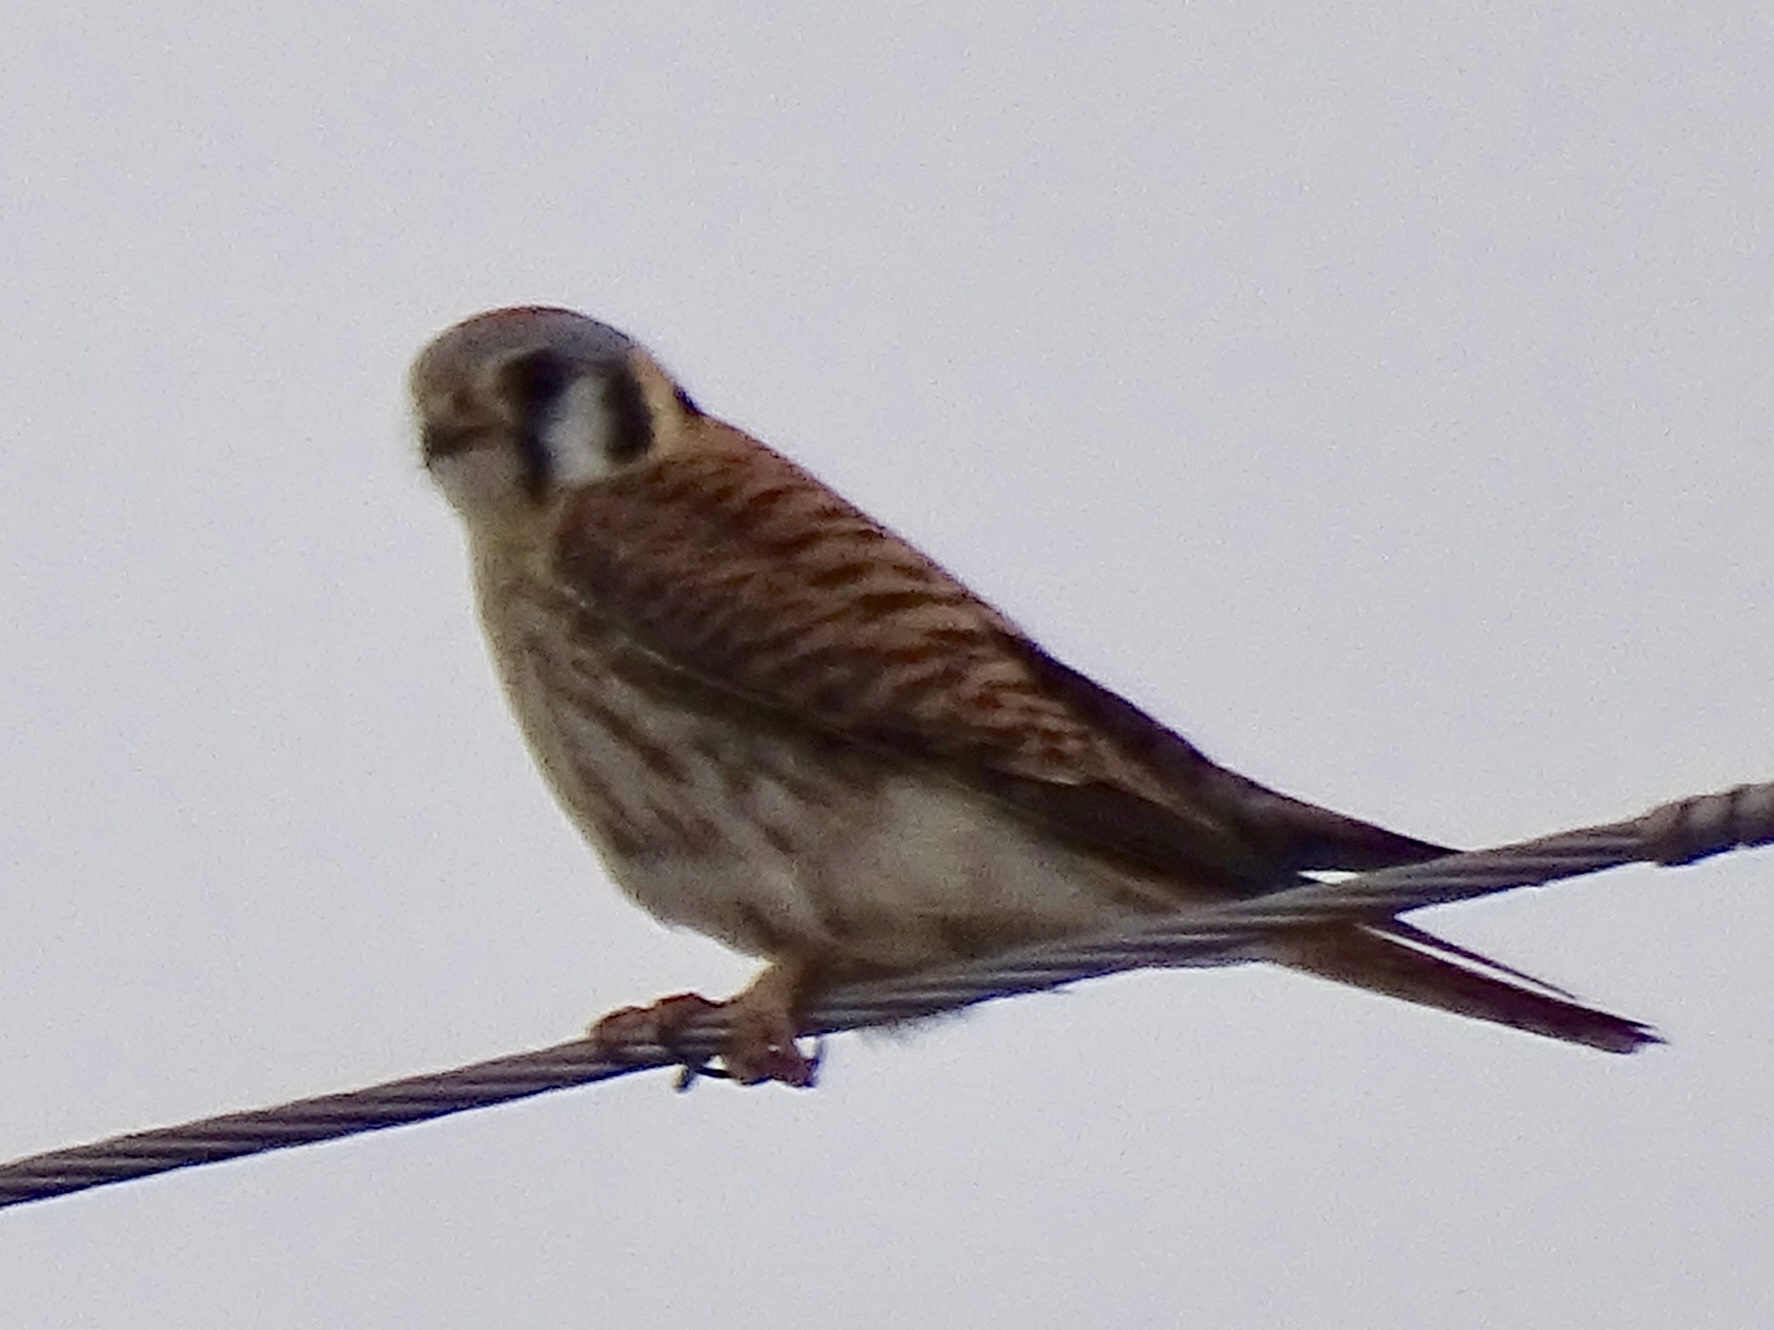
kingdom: Animalia
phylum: Chordata
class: Aves
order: Falconiformes
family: Falconidae
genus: Falco
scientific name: Falco sparverius
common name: American kestrel
